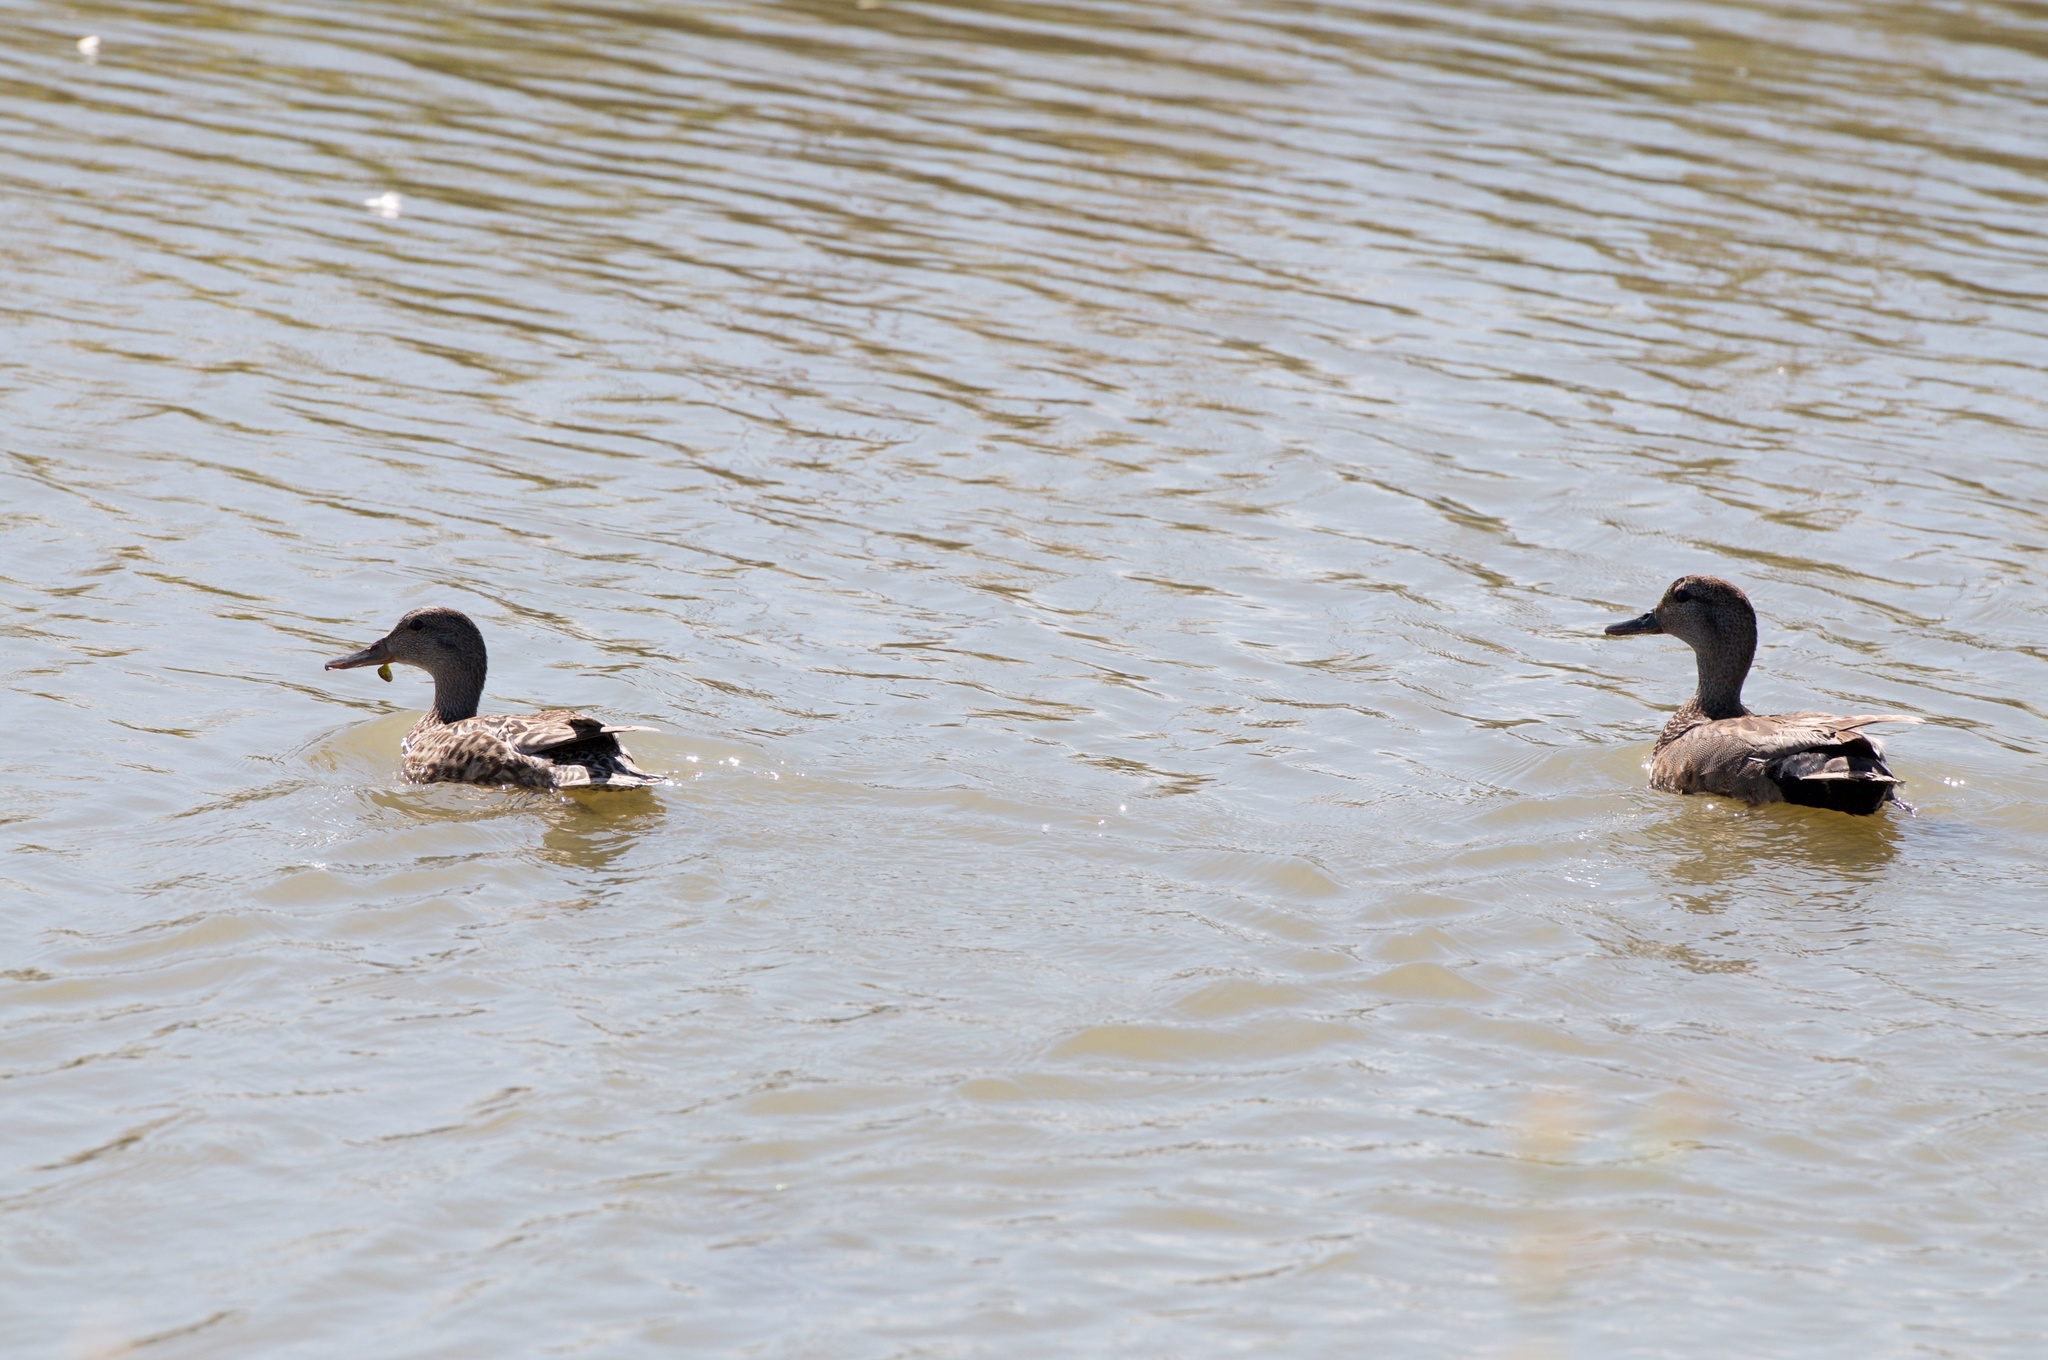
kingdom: Animalia
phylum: Chordata
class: Aves
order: Anseriformes
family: Anatidae
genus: Mareca
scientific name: Mareca strepera
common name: Gadwall
